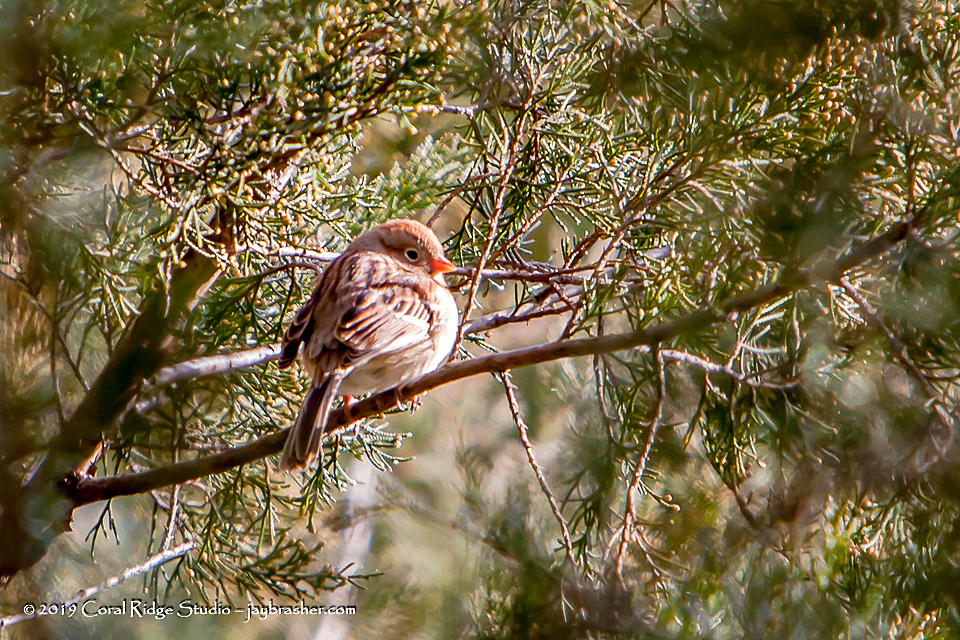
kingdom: Animalia
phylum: Chordata
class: Aves
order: Passeriformes
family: Passerellidae
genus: Spizella
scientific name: Spizella pusilla
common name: Field sparrow
